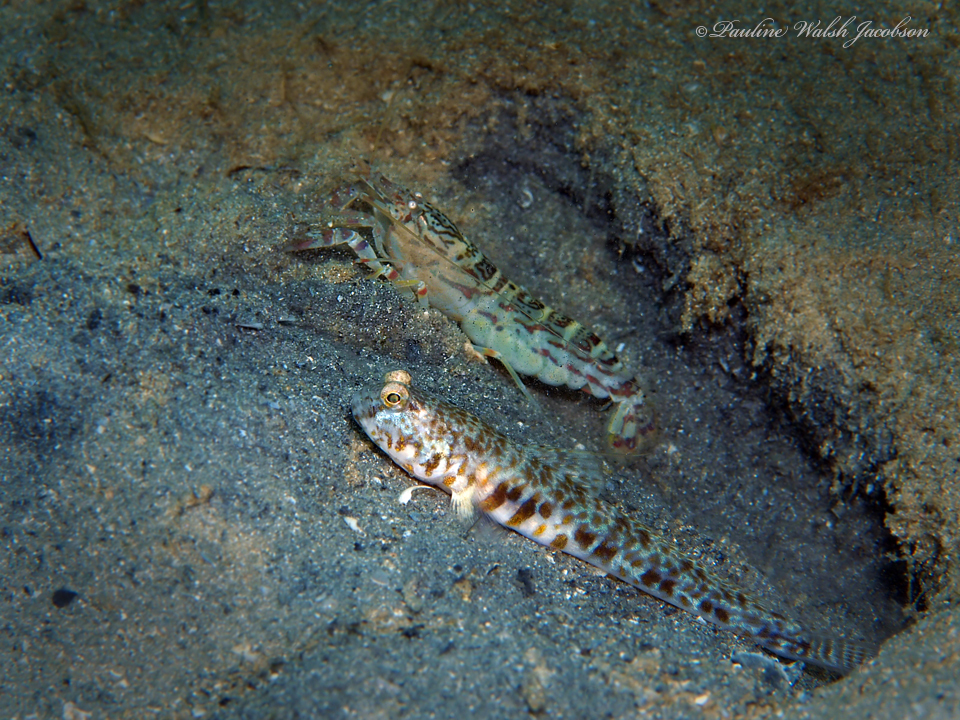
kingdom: Animalia
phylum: Arthropoda
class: Malacostraca
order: Decapoda
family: Alpheidae
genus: Alpheus
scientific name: Alpheus floridanus
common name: Sand snapping shrimp
